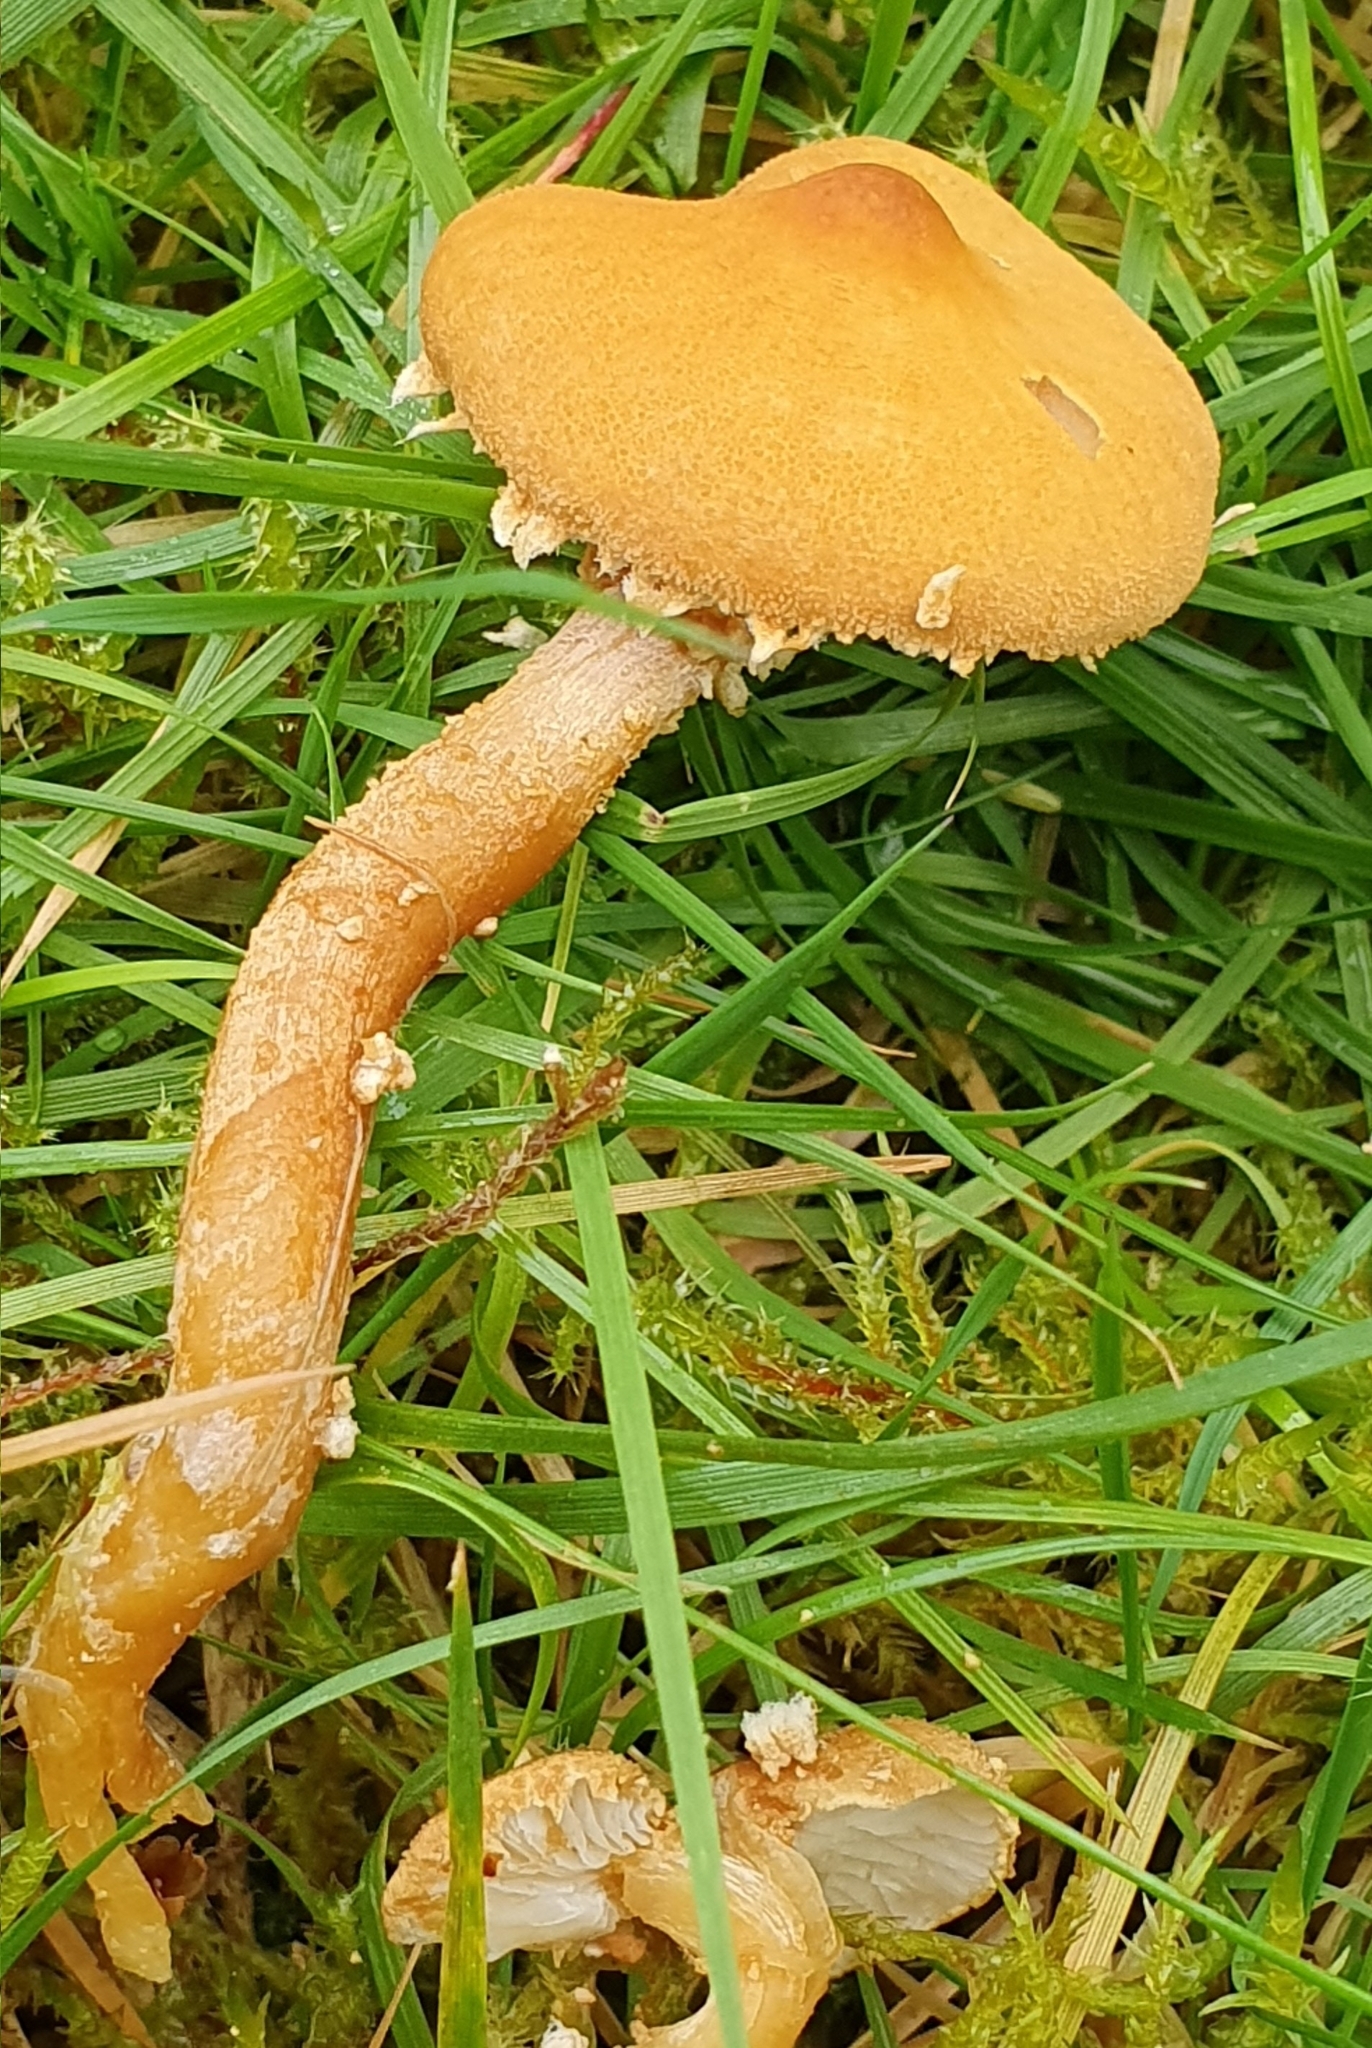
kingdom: Fungi
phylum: Basidiomycota
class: Agaricomycetes
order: Agaricales
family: Tricholomataceae
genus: Cystoderma
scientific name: Cystoderma amianthinum
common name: Earthy powdercap
